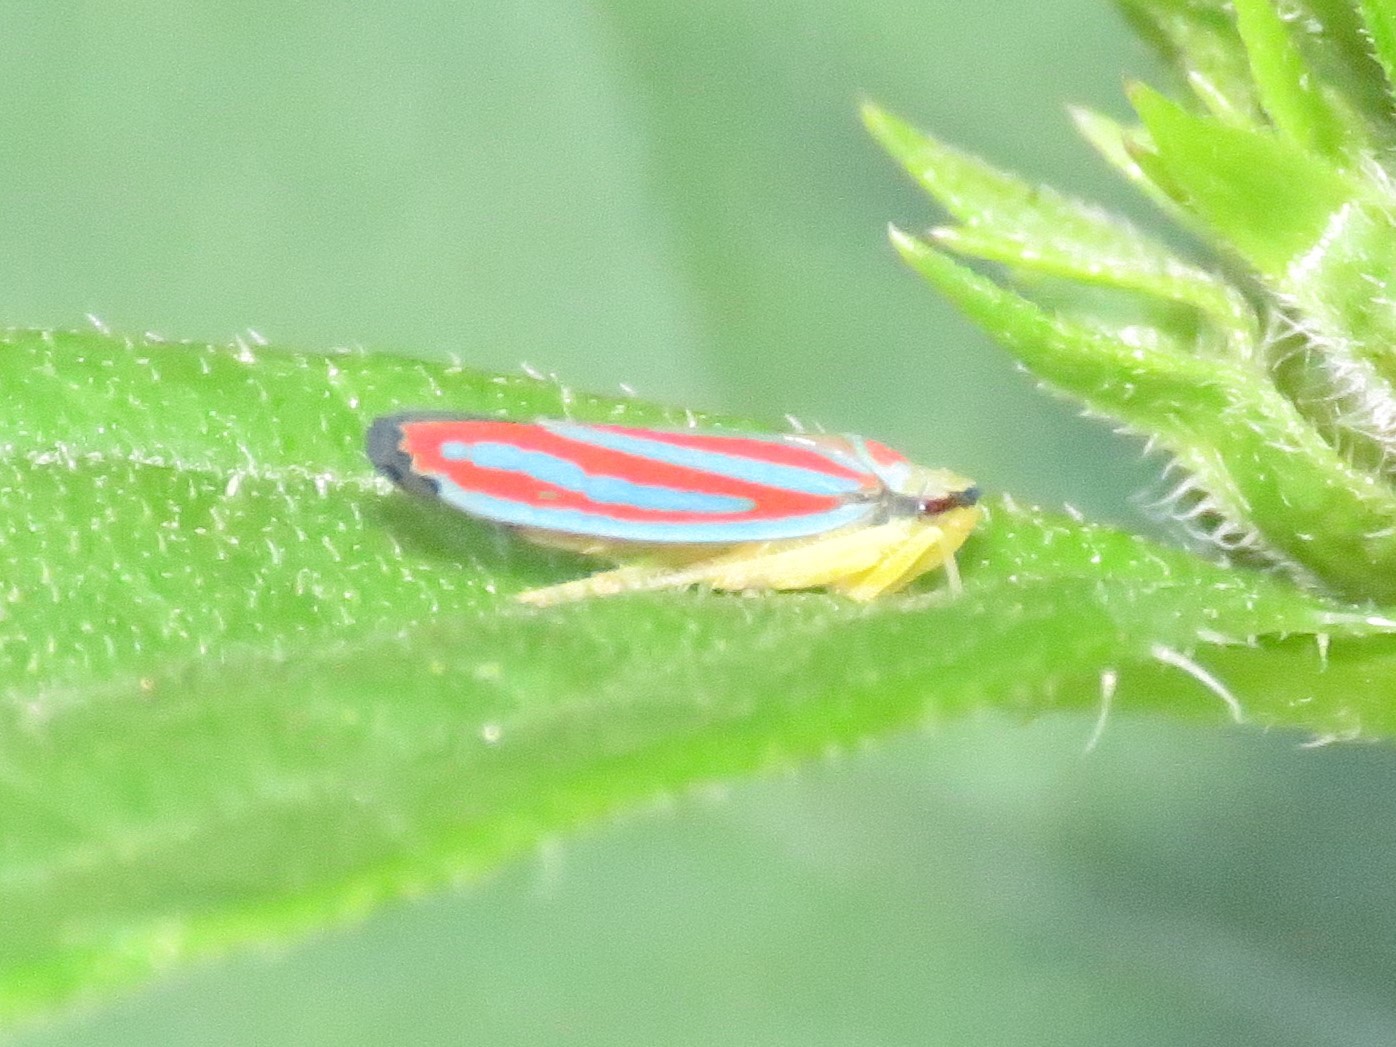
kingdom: Animalia
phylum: Arthropoda
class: Insecta
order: Hemiptera
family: Cicadellidae
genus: Graphocephala
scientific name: Graphocephala coccinea
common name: Candy-striped leafhopper
